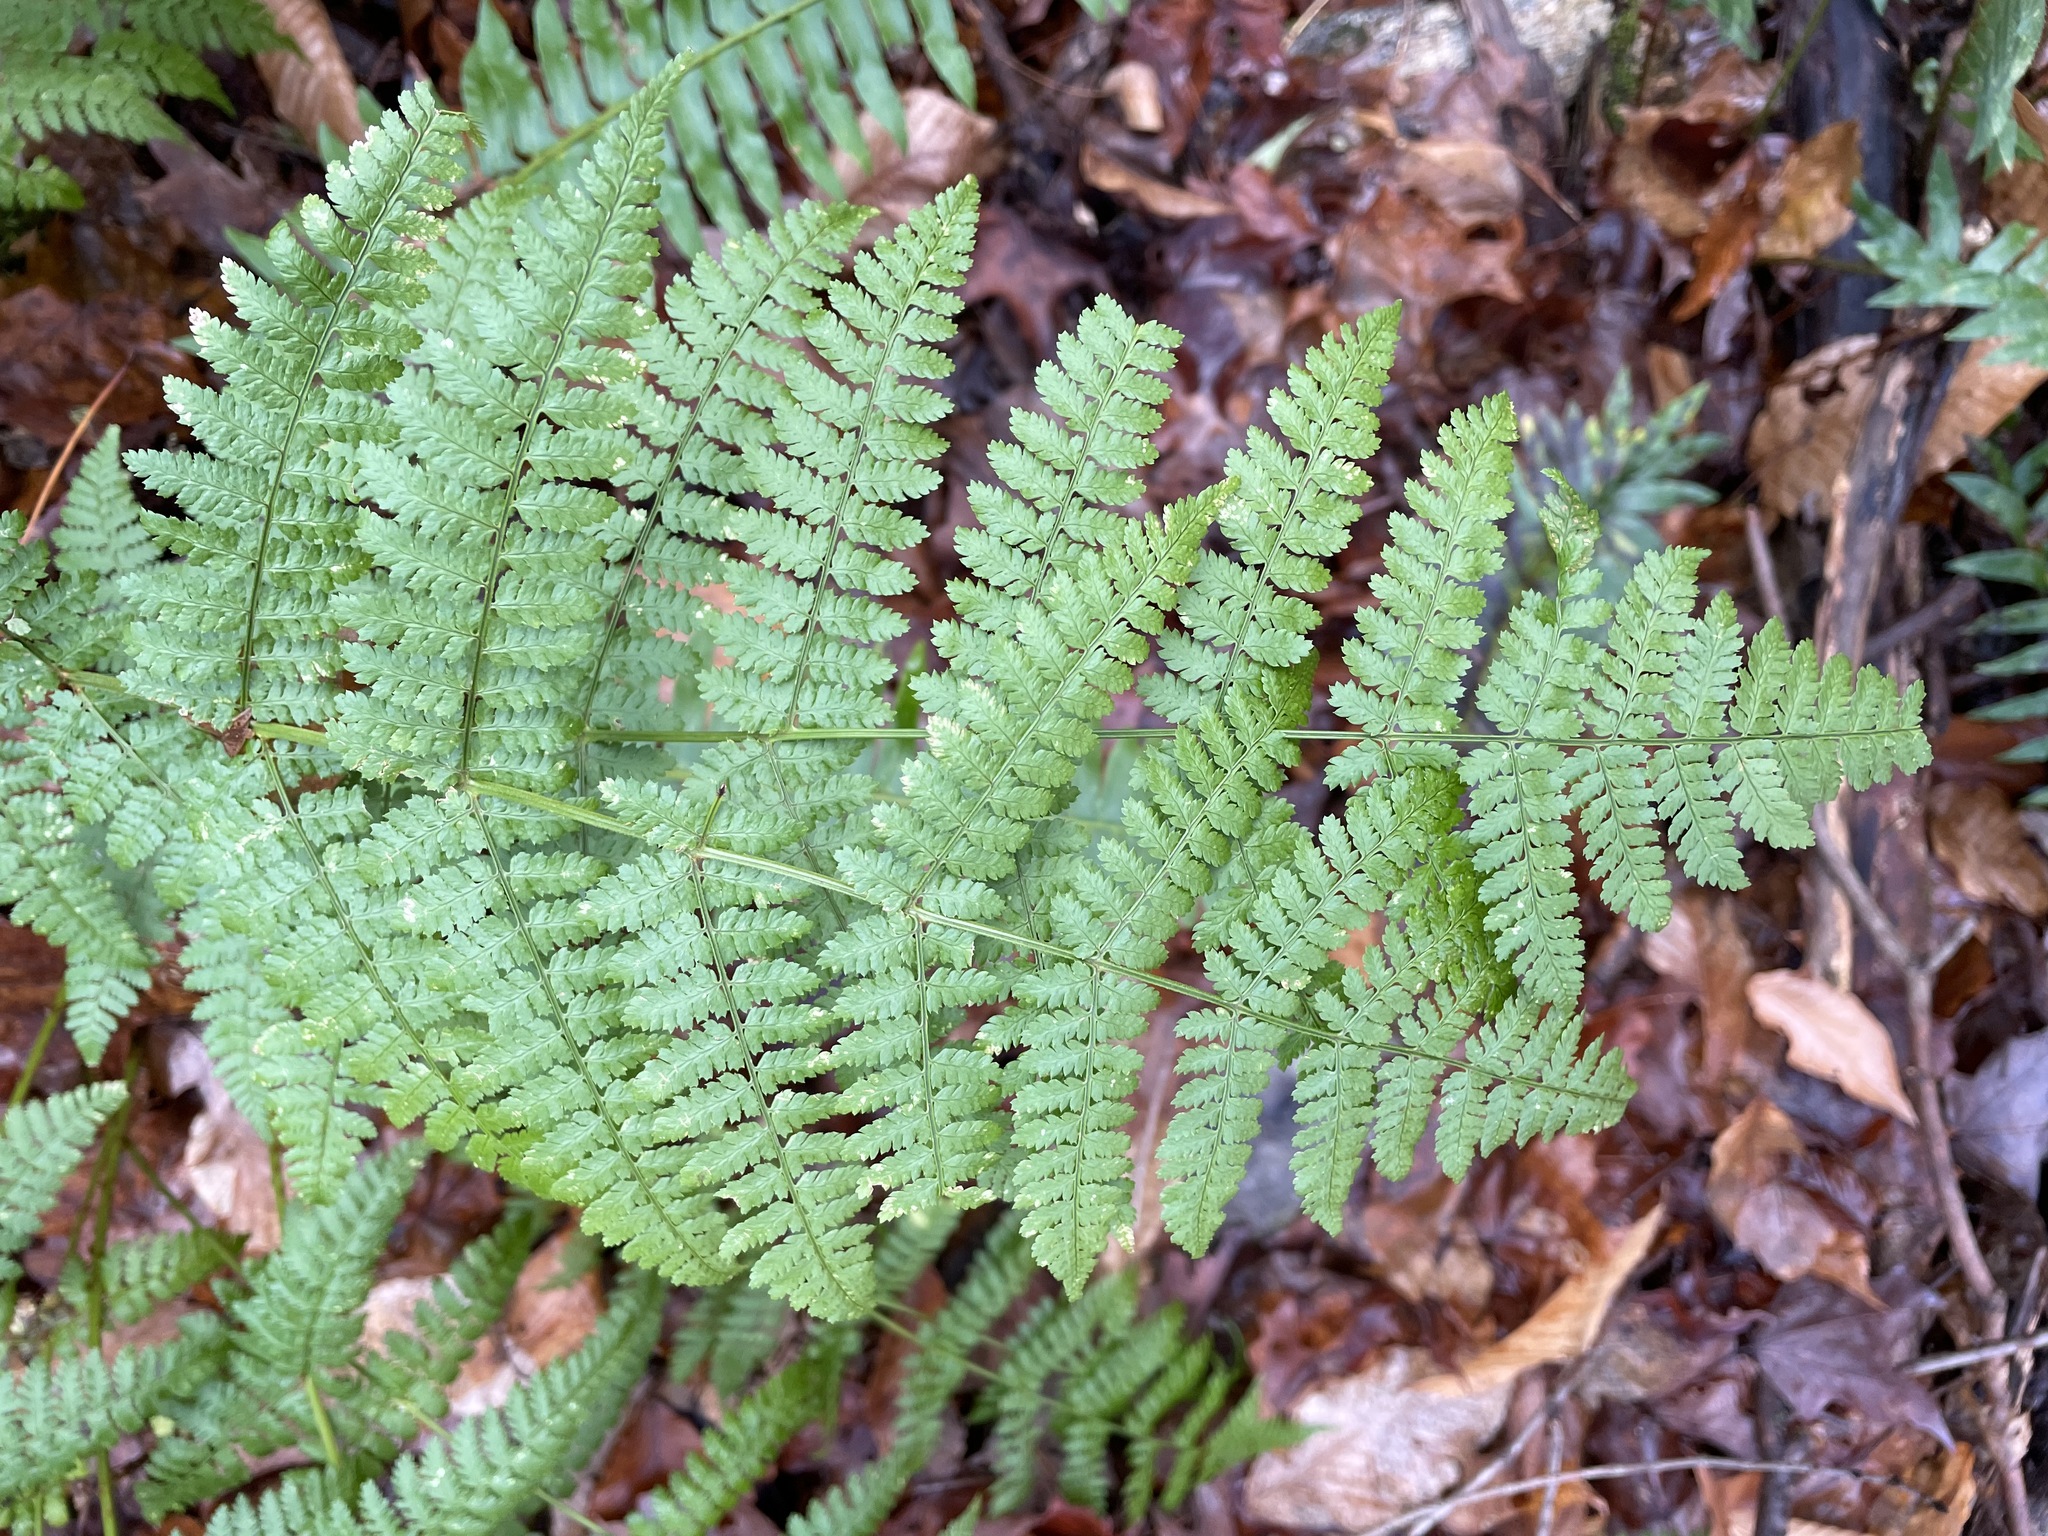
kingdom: Plantae
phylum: Tracheophyta
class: Polypodiopsida
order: Polypodiales
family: Dryopteridaceae
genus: Dryopteris
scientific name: Dryopteris intermedia
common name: Evergreen wood fern
